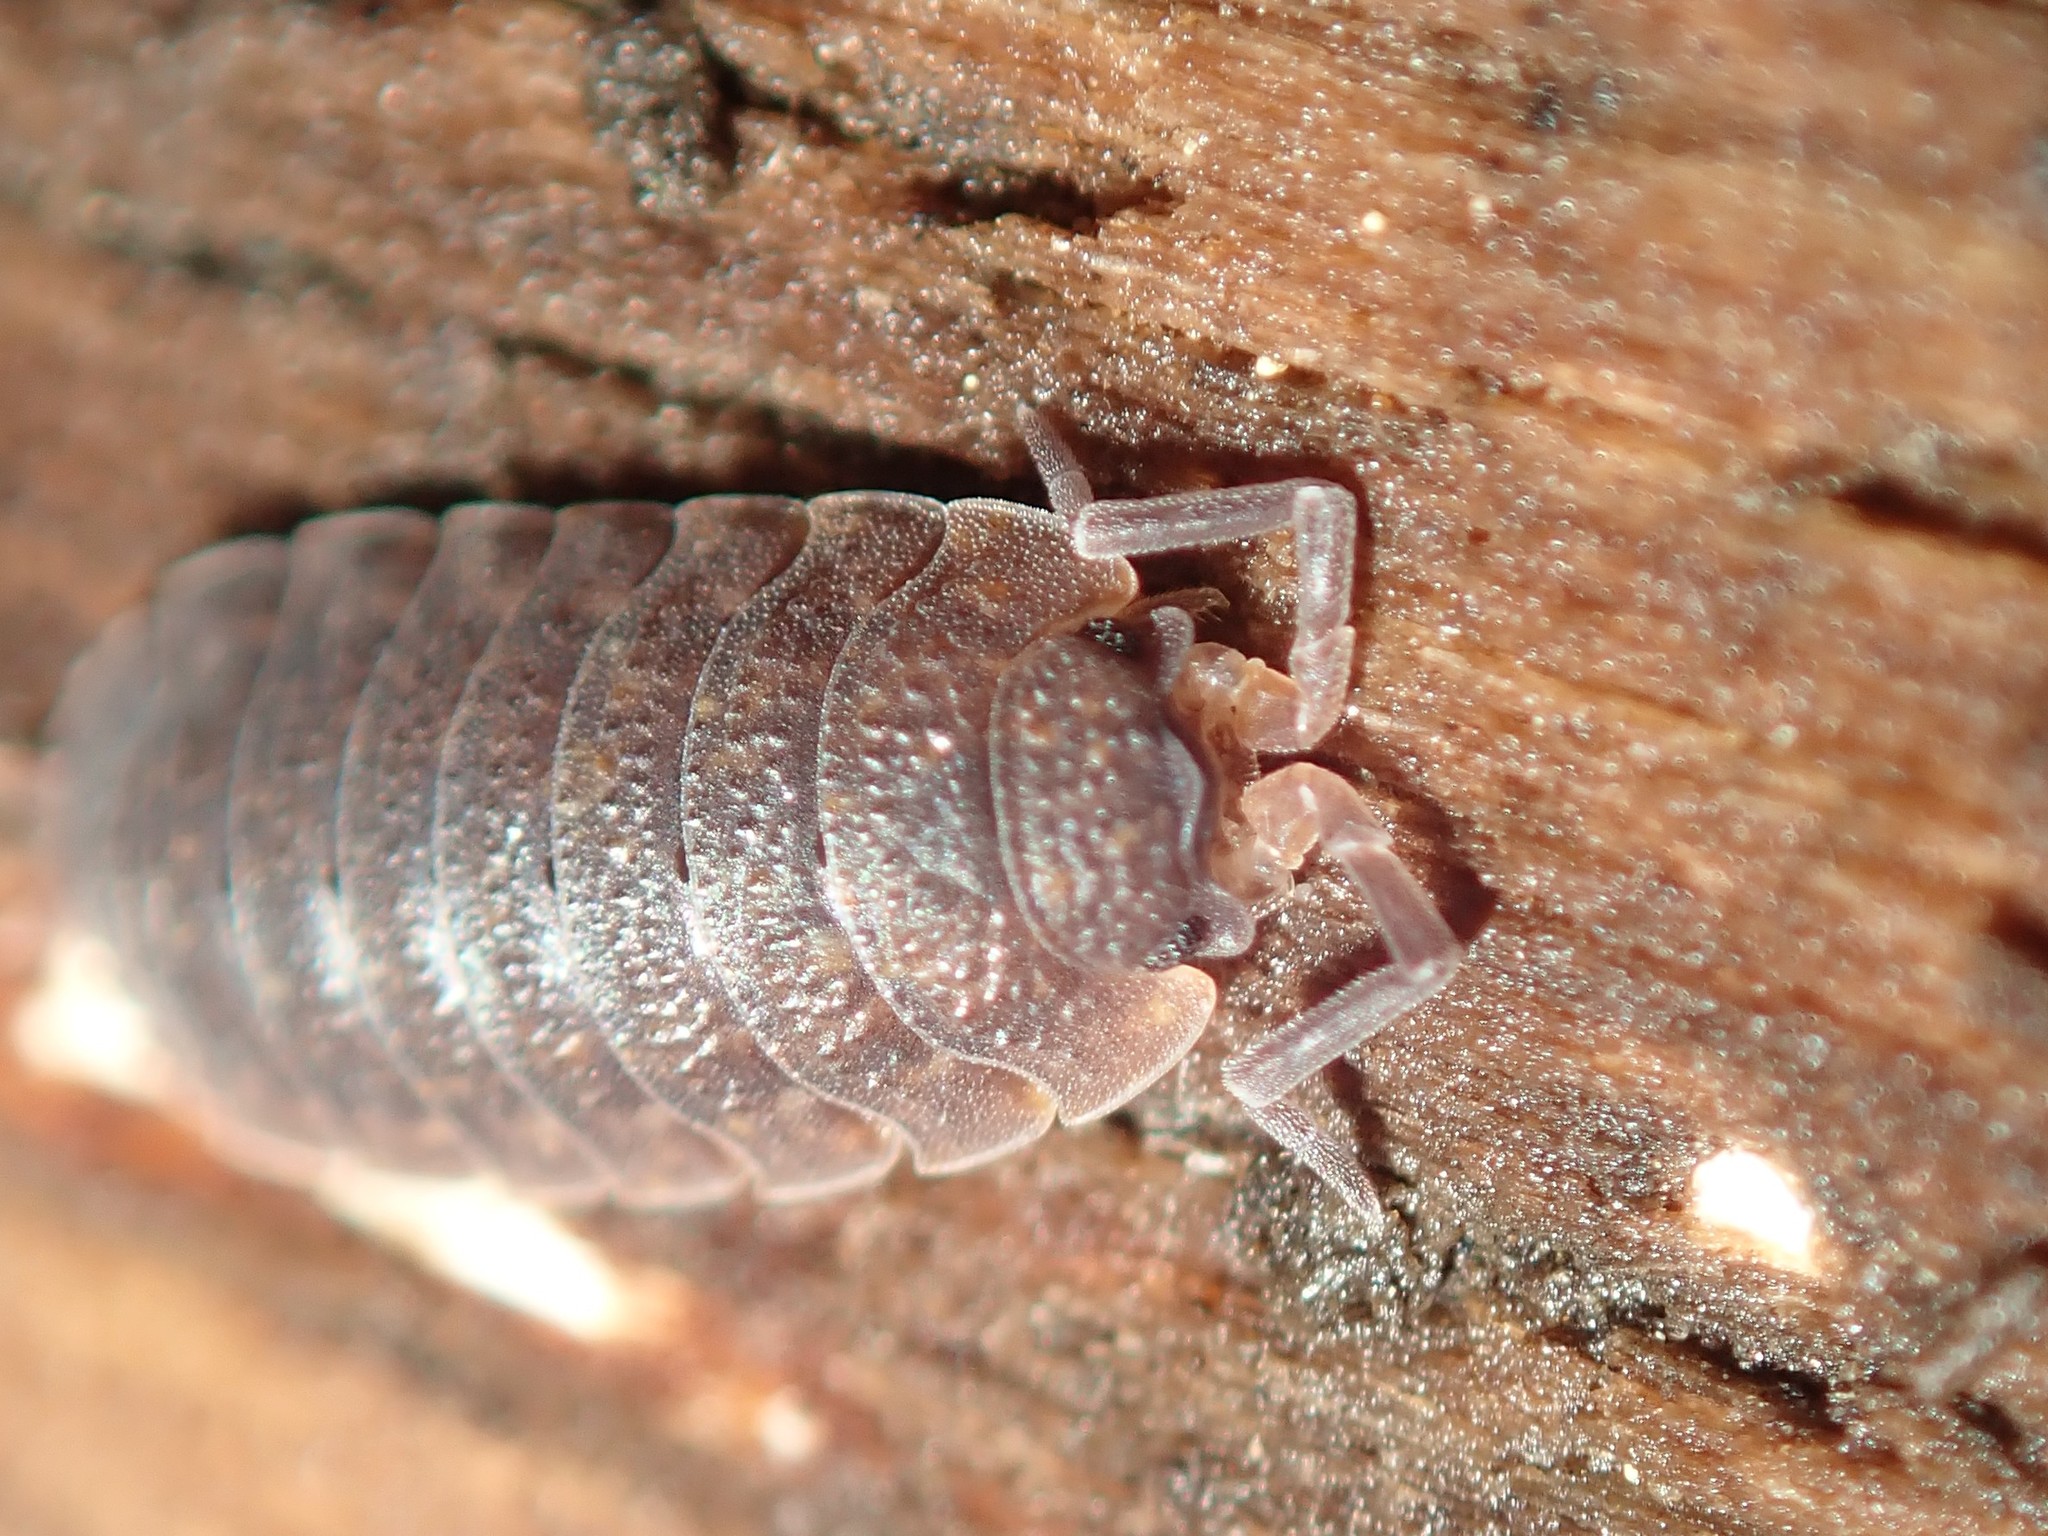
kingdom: Animalia
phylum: Arthropoda
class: Malacostraca
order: Isopoda
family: Porcellionidae
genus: Porcellio
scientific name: Porcellio scaber
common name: Common rough woodlouse
